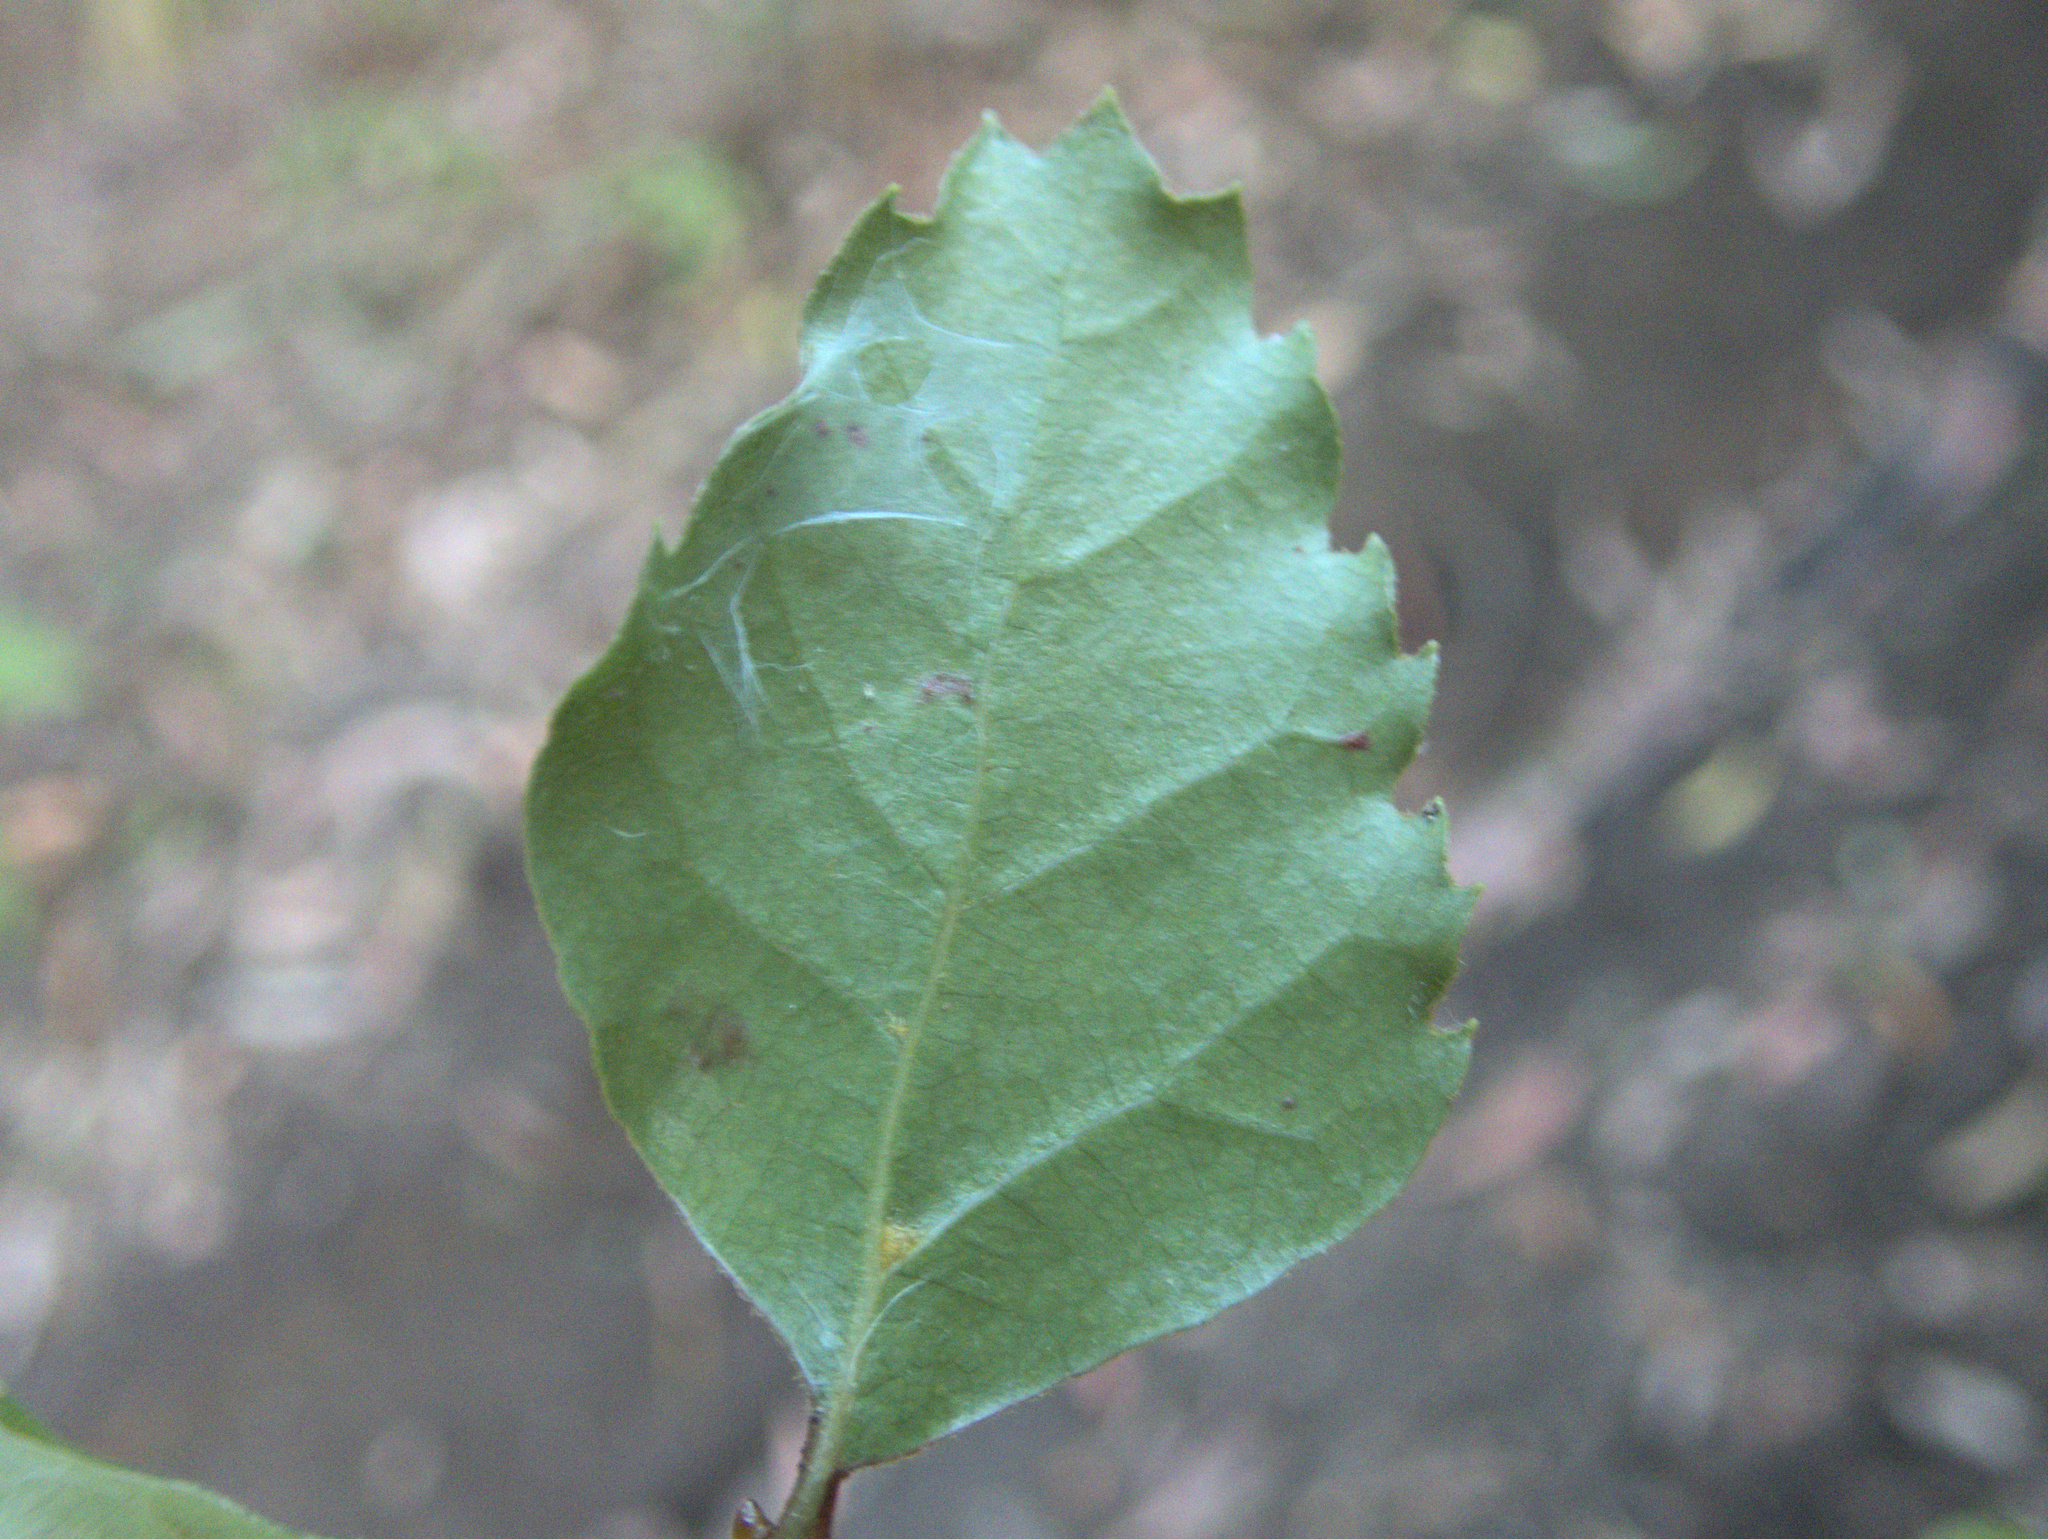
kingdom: Plantae
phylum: Tracheophyta
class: Magnoliopsida
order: Fagales
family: Nothofagaceae
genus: Nothofagus
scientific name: Nothofagus fusca
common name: Red beech
